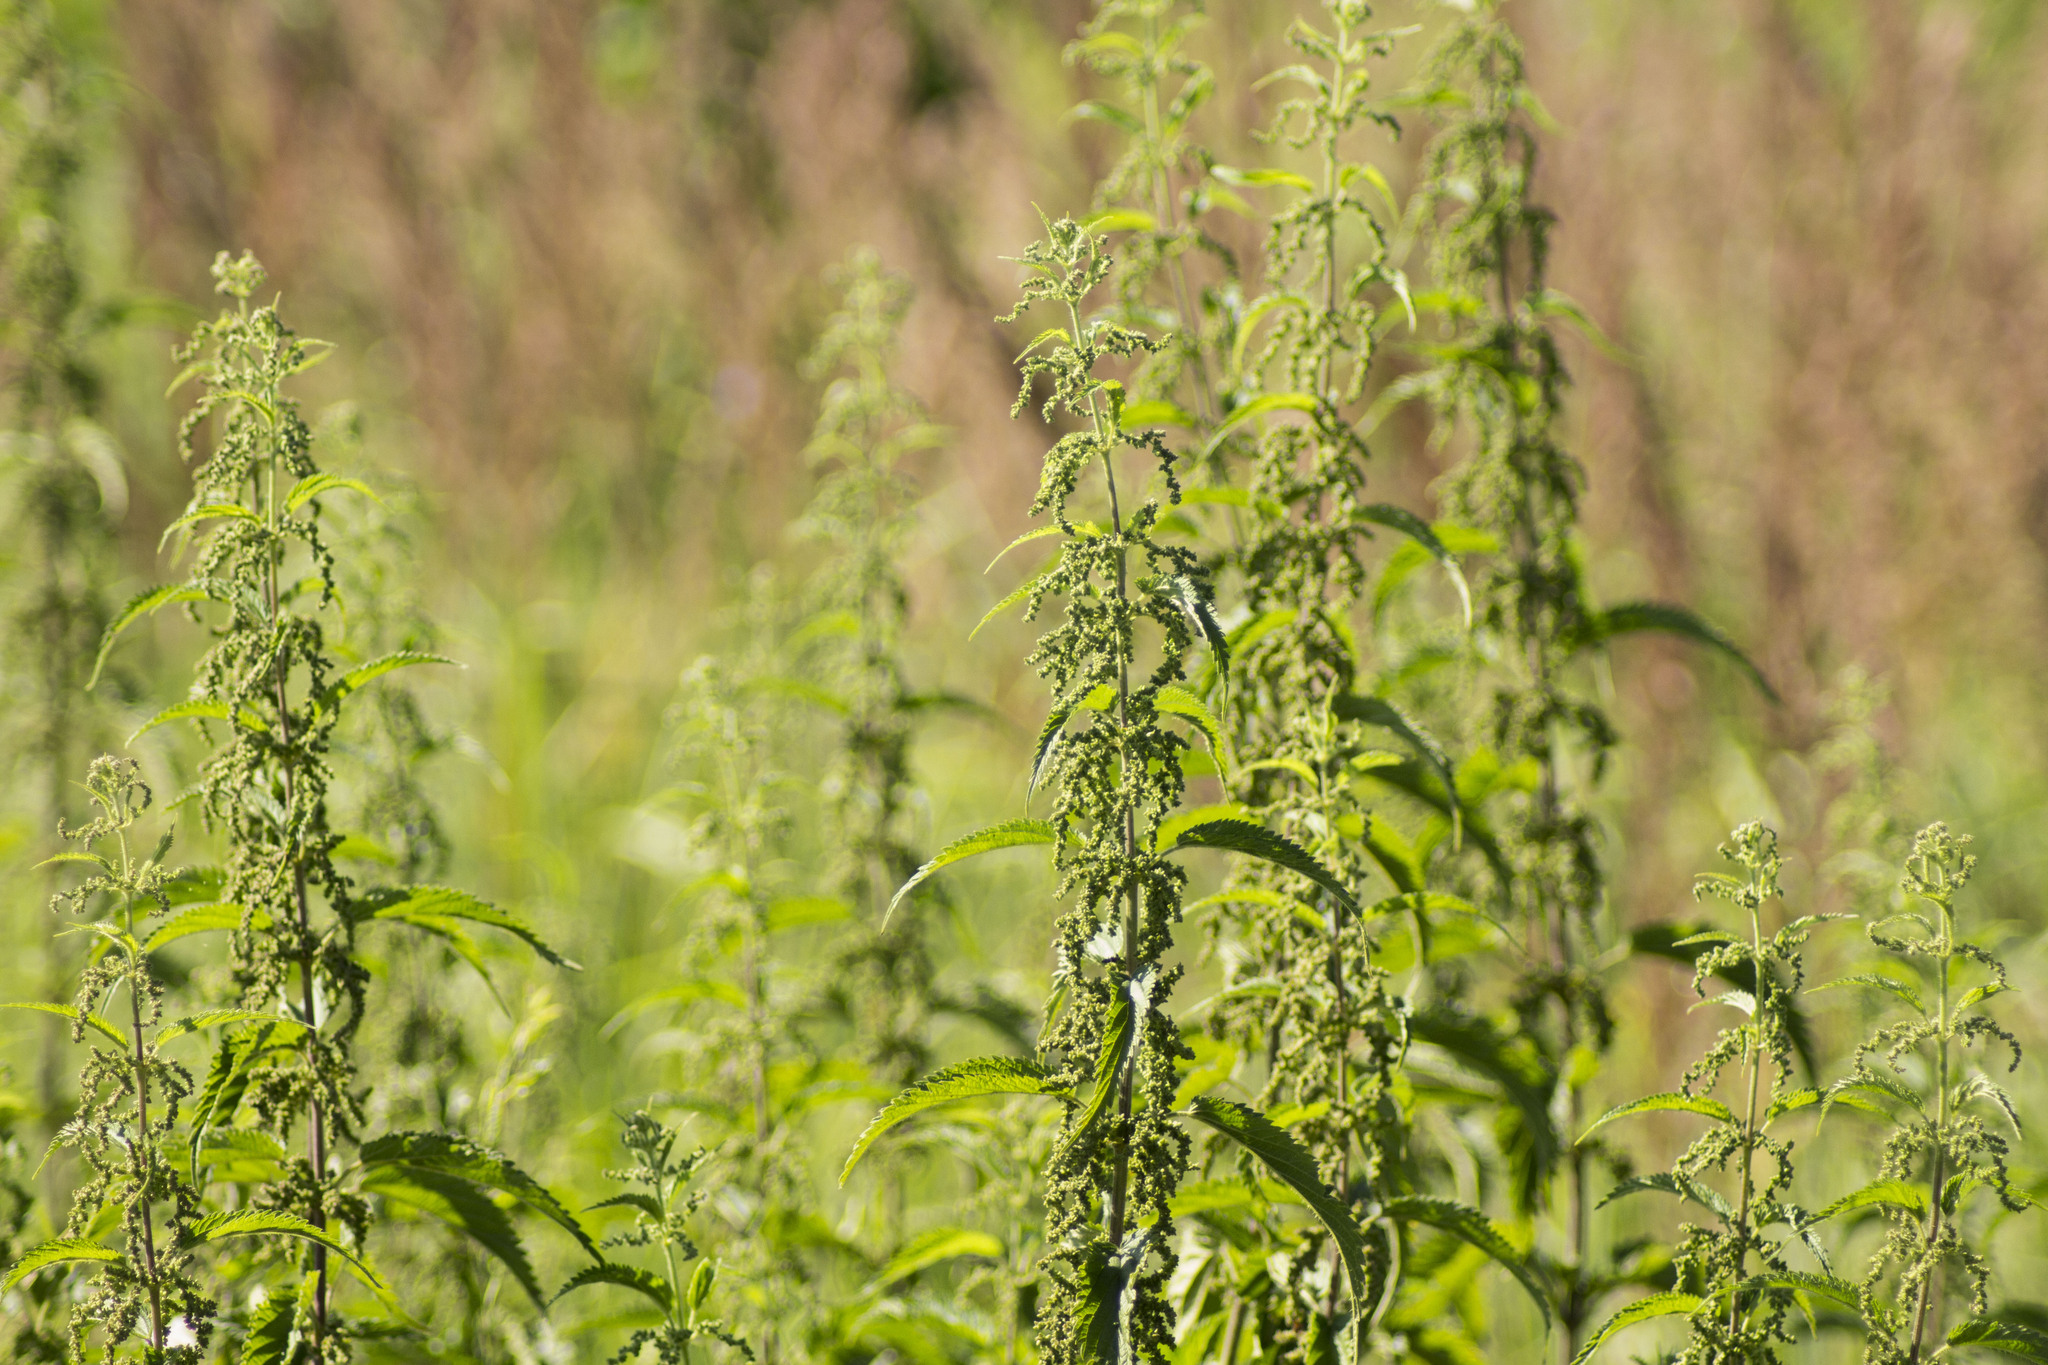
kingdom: Plantae
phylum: Tracheophyta
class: Magnoliopsida
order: Rosales
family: Urticaceae
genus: Urtica
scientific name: Urtica dioica
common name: Common nettle
